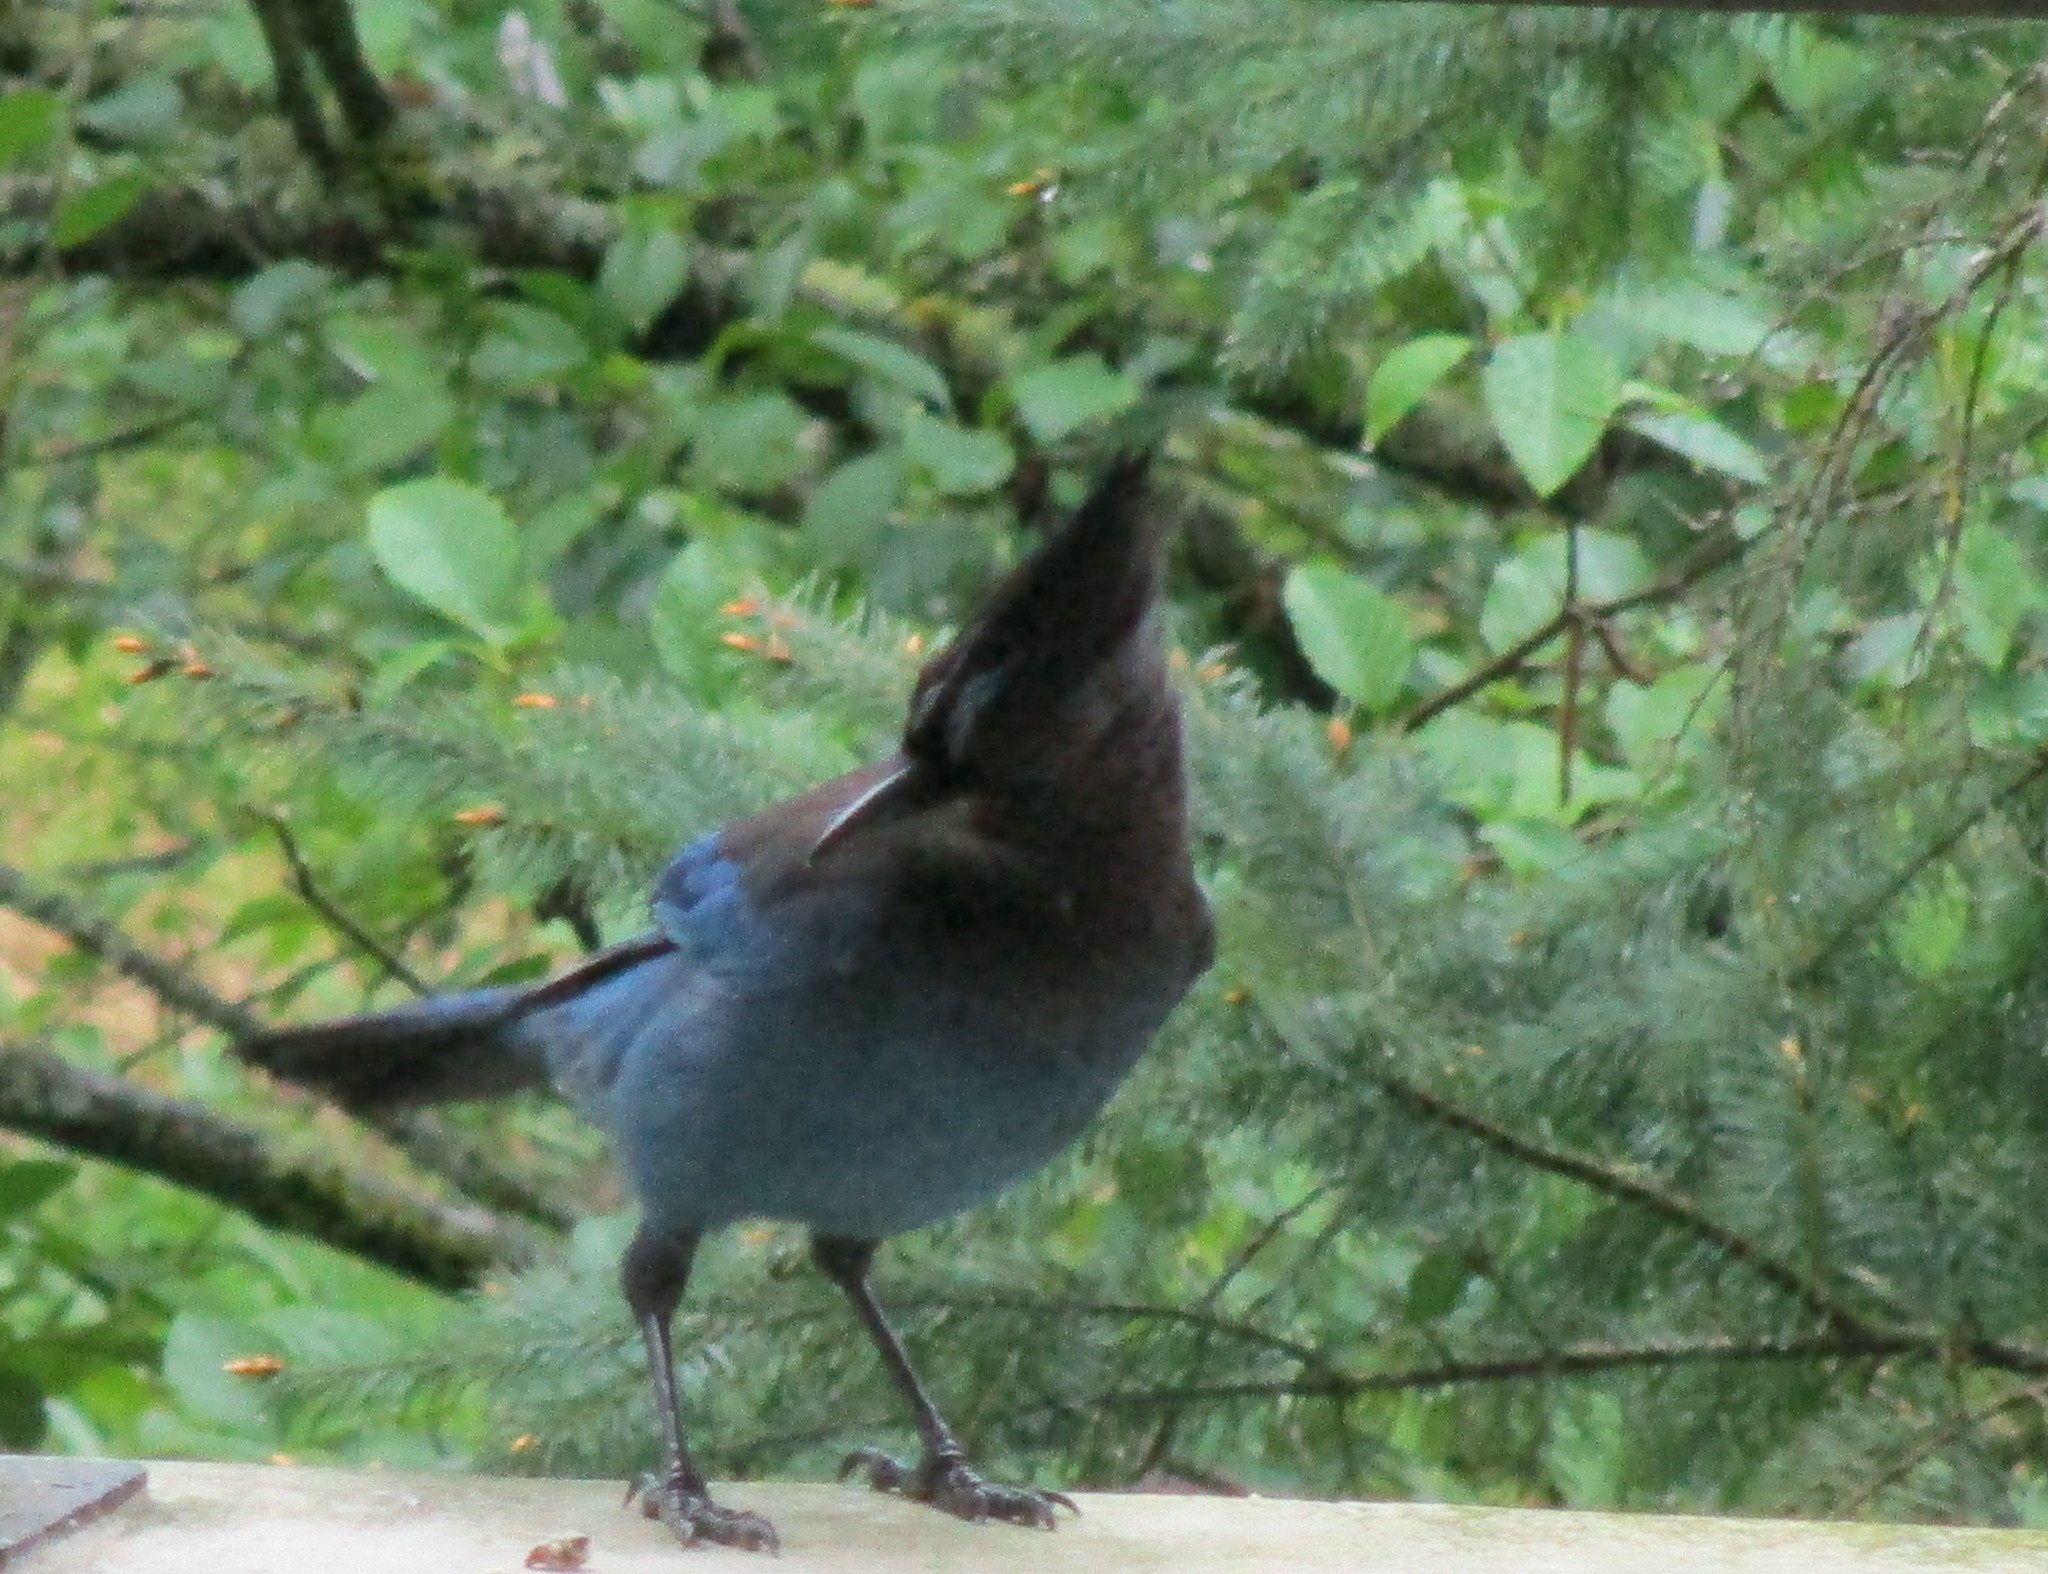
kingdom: Animalia
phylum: Chordata
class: Aves
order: Passeriformes
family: Corvidae
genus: Cyanocitta
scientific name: Cyanocitta stelleri
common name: Steller's jay
